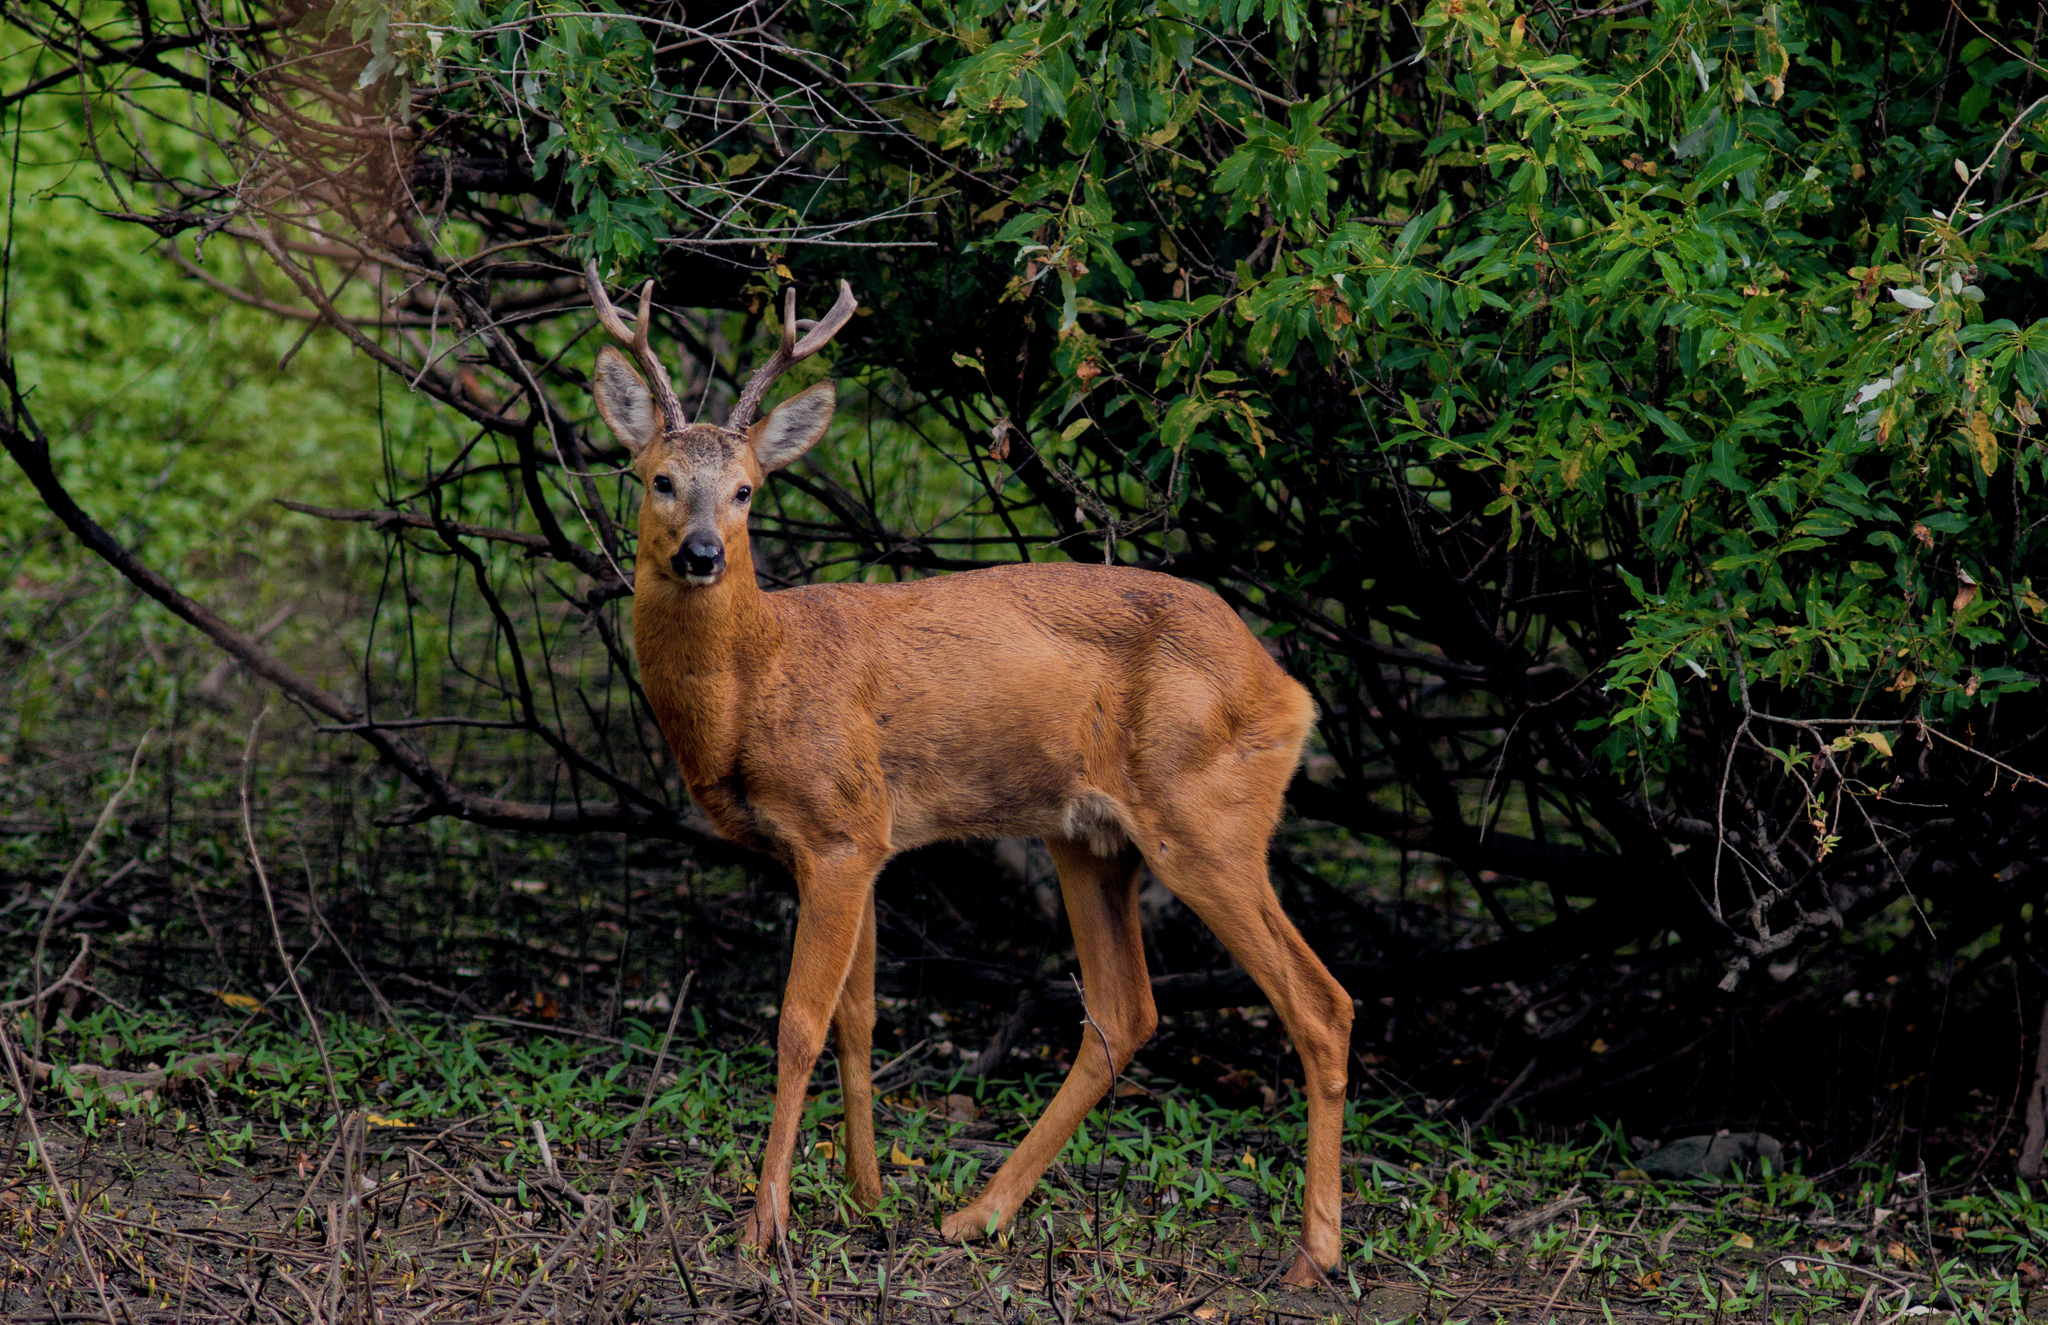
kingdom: Animalia
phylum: Chordata
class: Mammalia
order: Artiodactyla
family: Cervidae
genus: Capreolus
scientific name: Capreolus pygargus
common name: Siberian roe
